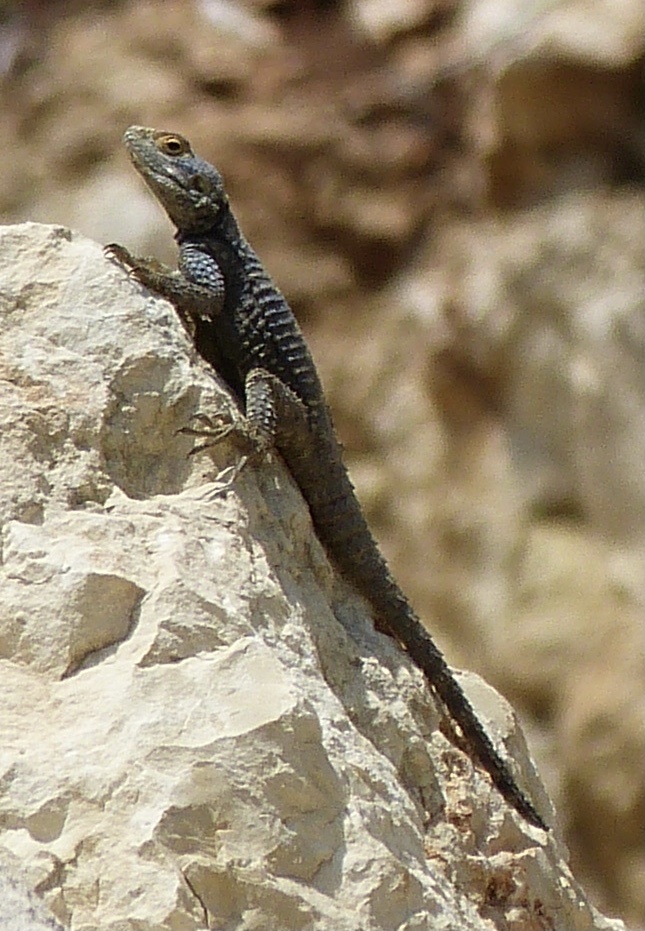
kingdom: Animalia
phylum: Chordata
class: Squamata
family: Agamidae
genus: Stellagama
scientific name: Stellagama stellio
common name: Starred agama
